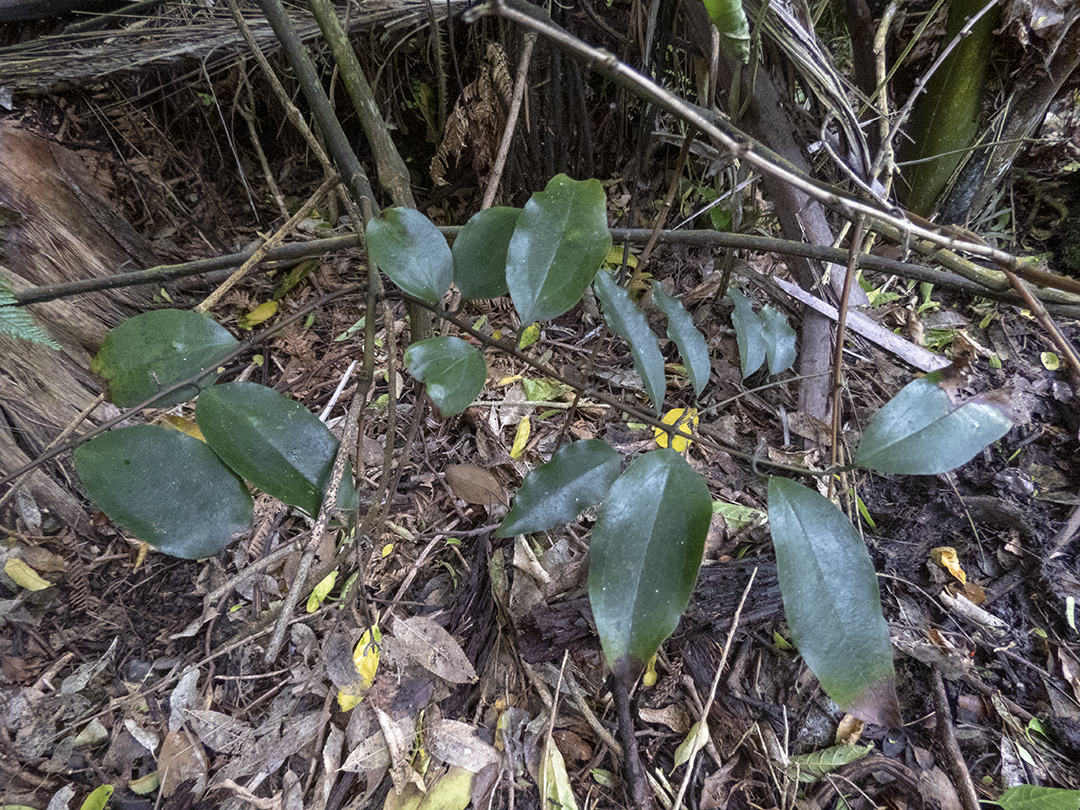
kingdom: Plantae
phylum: Tracheophyta
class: Liliopsida
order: Liliales
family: Ripogonaceae
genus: Ripogonum
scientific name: Ripogonum scandens
